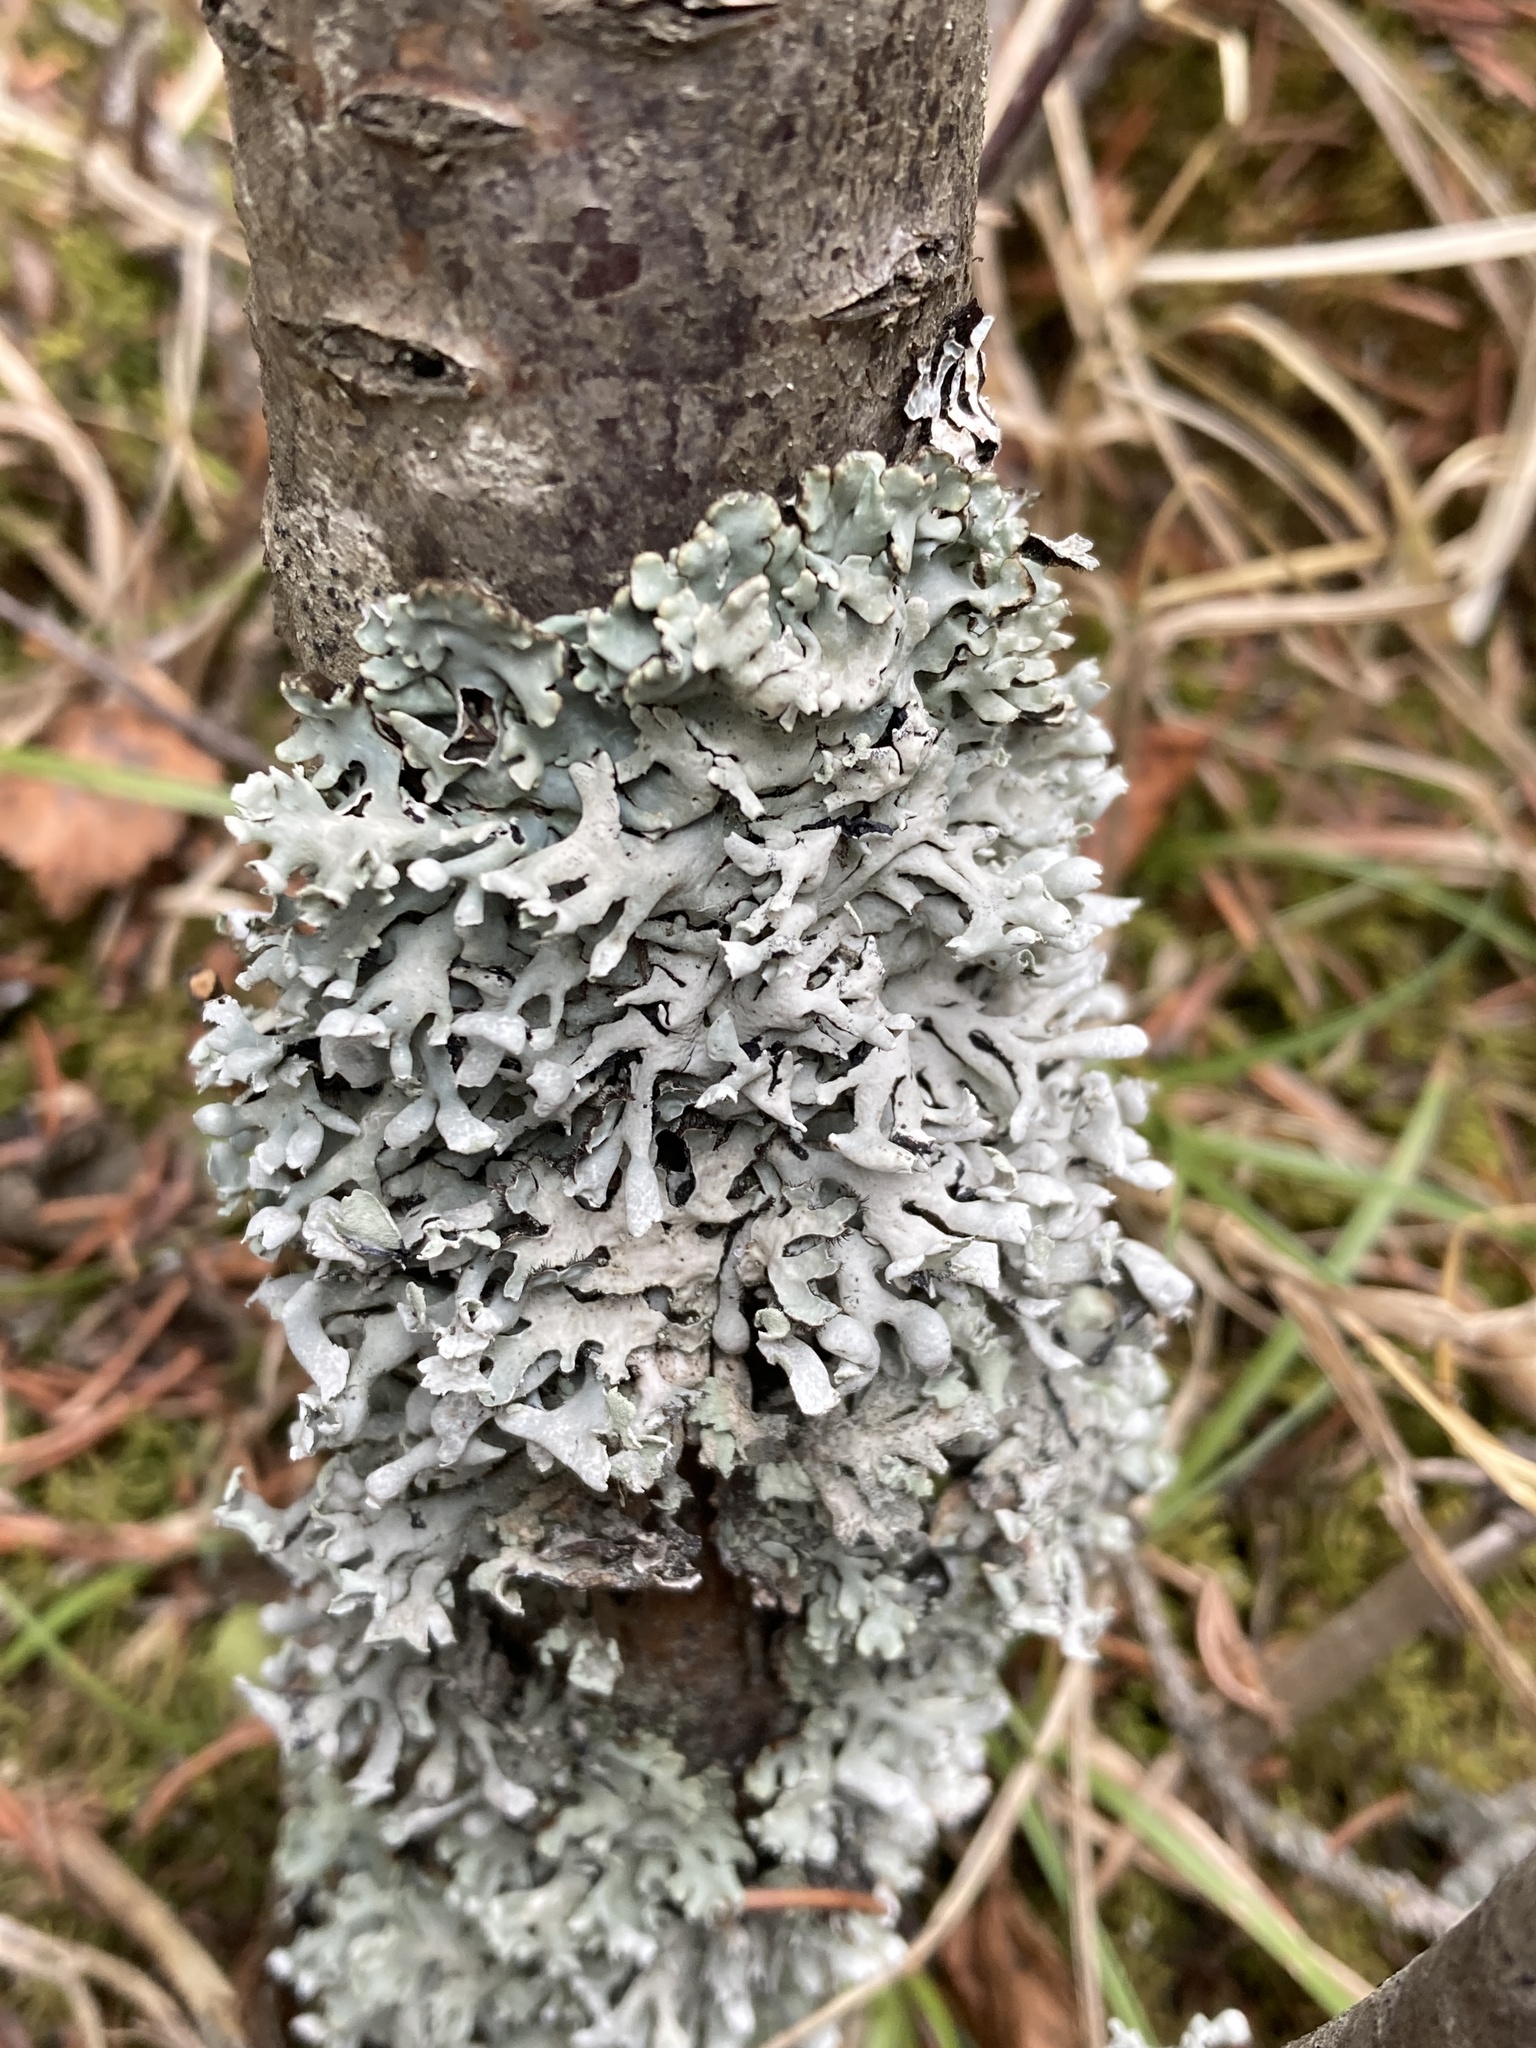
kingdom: Fungi
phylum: Ascomycota
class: Lecanoromycetes
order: Lecanorales
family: Parmeliaceae
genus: Hypogymnia
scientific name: Hypogymnia physodes
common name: Dark crottle
